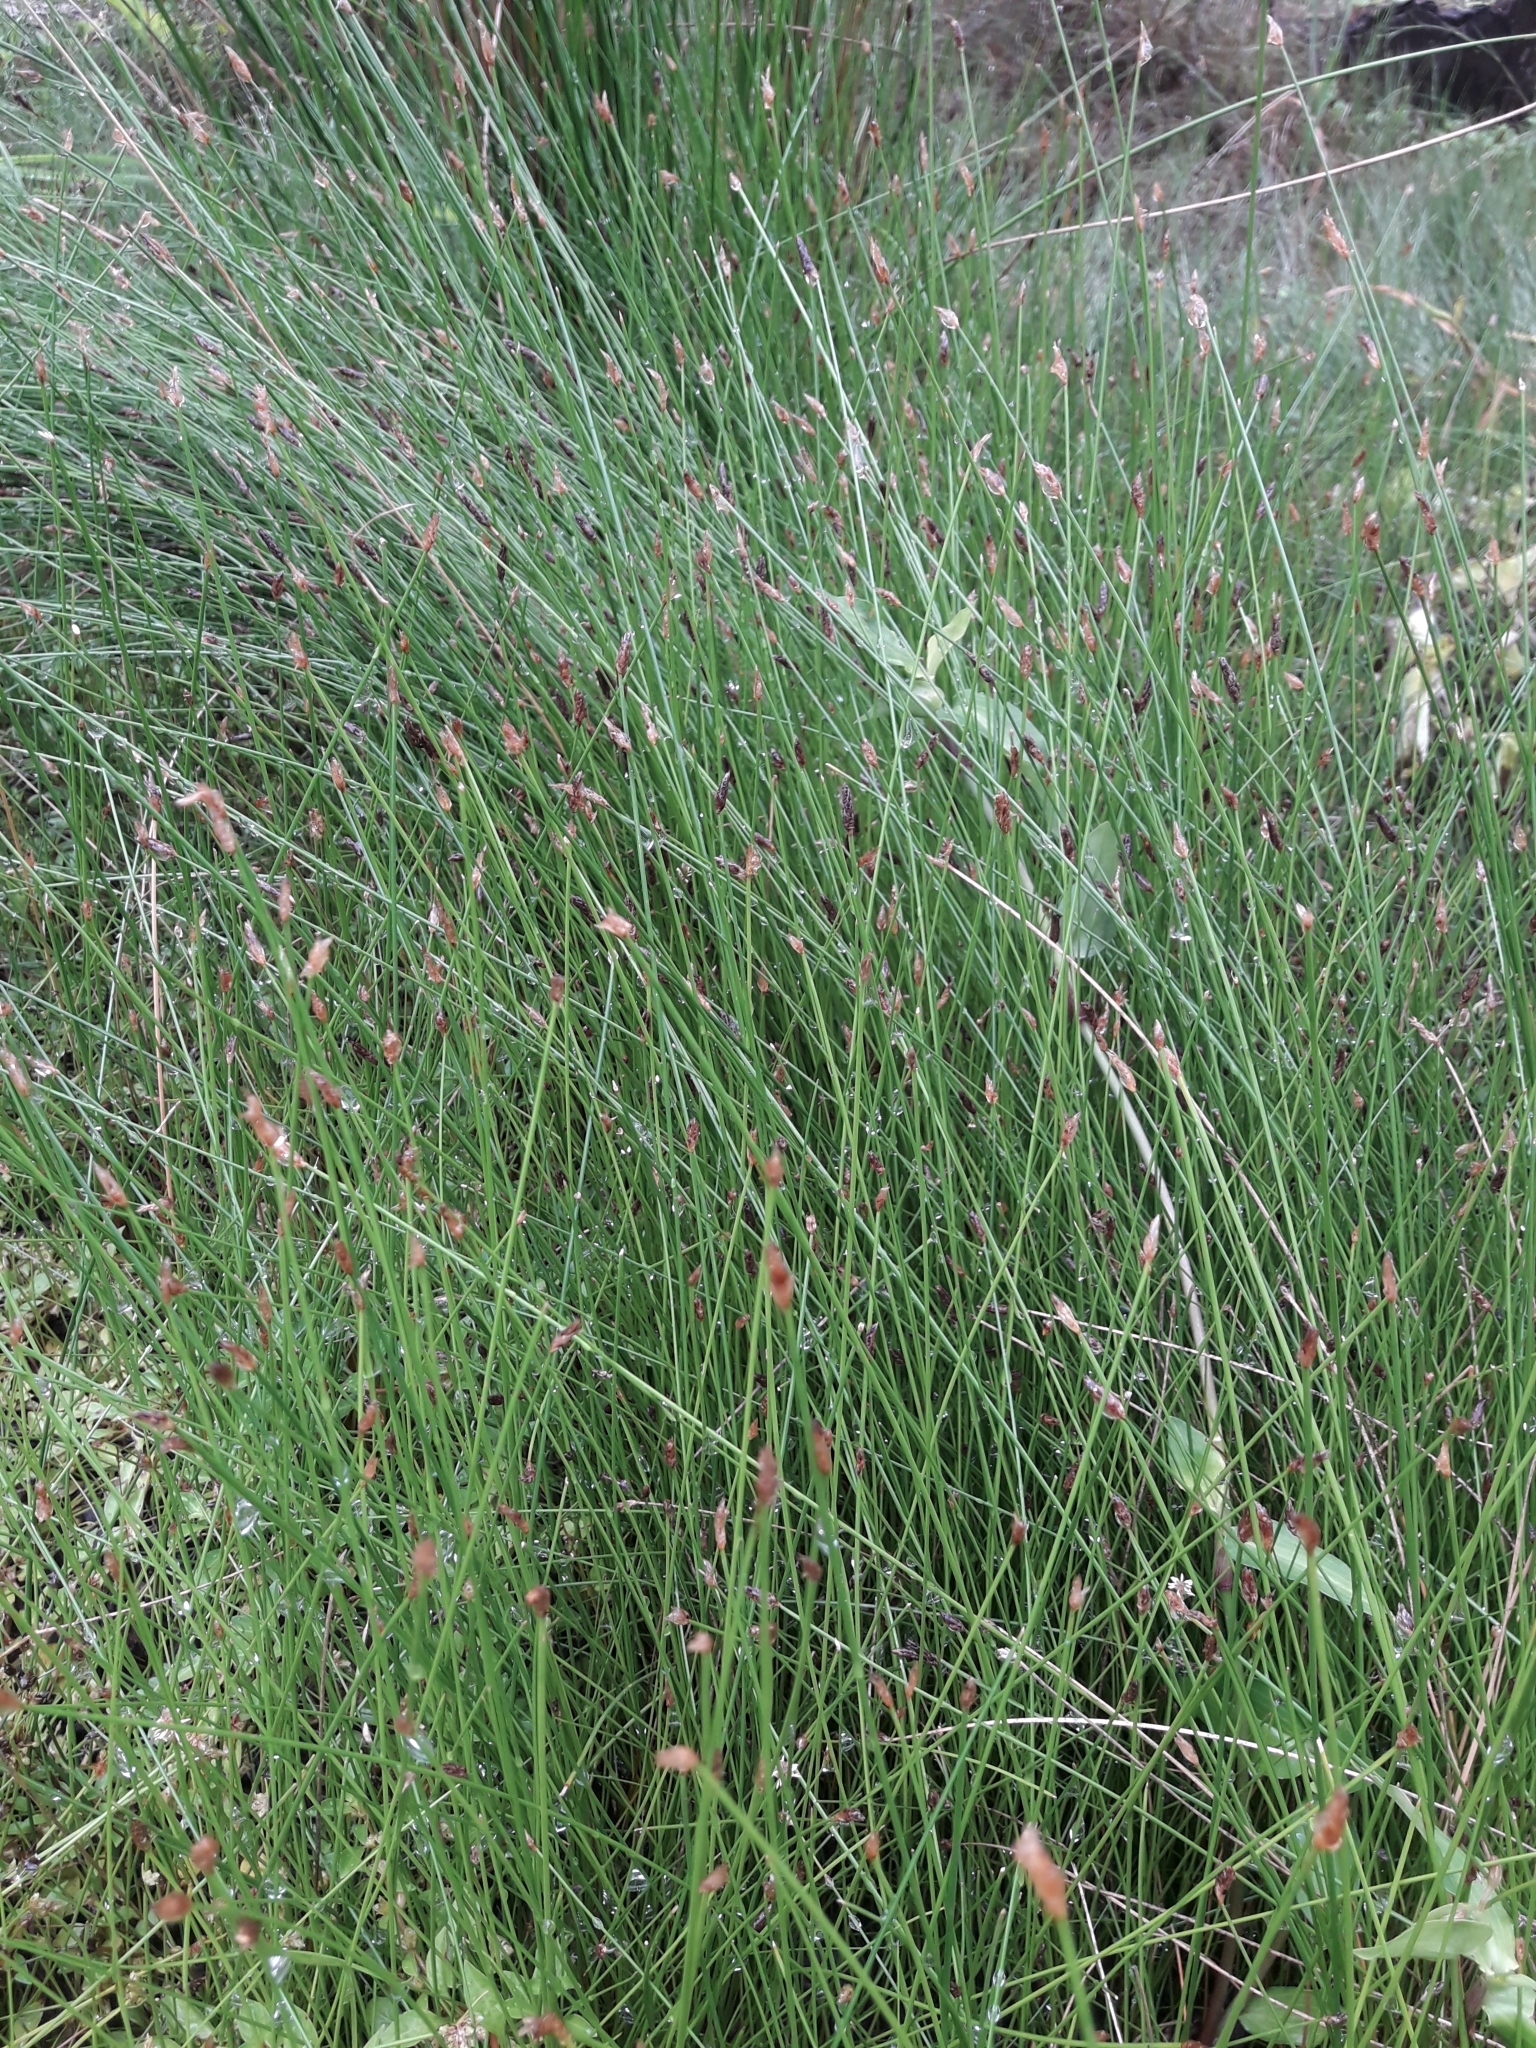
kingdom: Plantae
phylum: Tracheophyta
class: Liliopsida
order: Poales
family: Cyperaceae
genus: Eleocharis
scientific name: Eleocharis acuta
